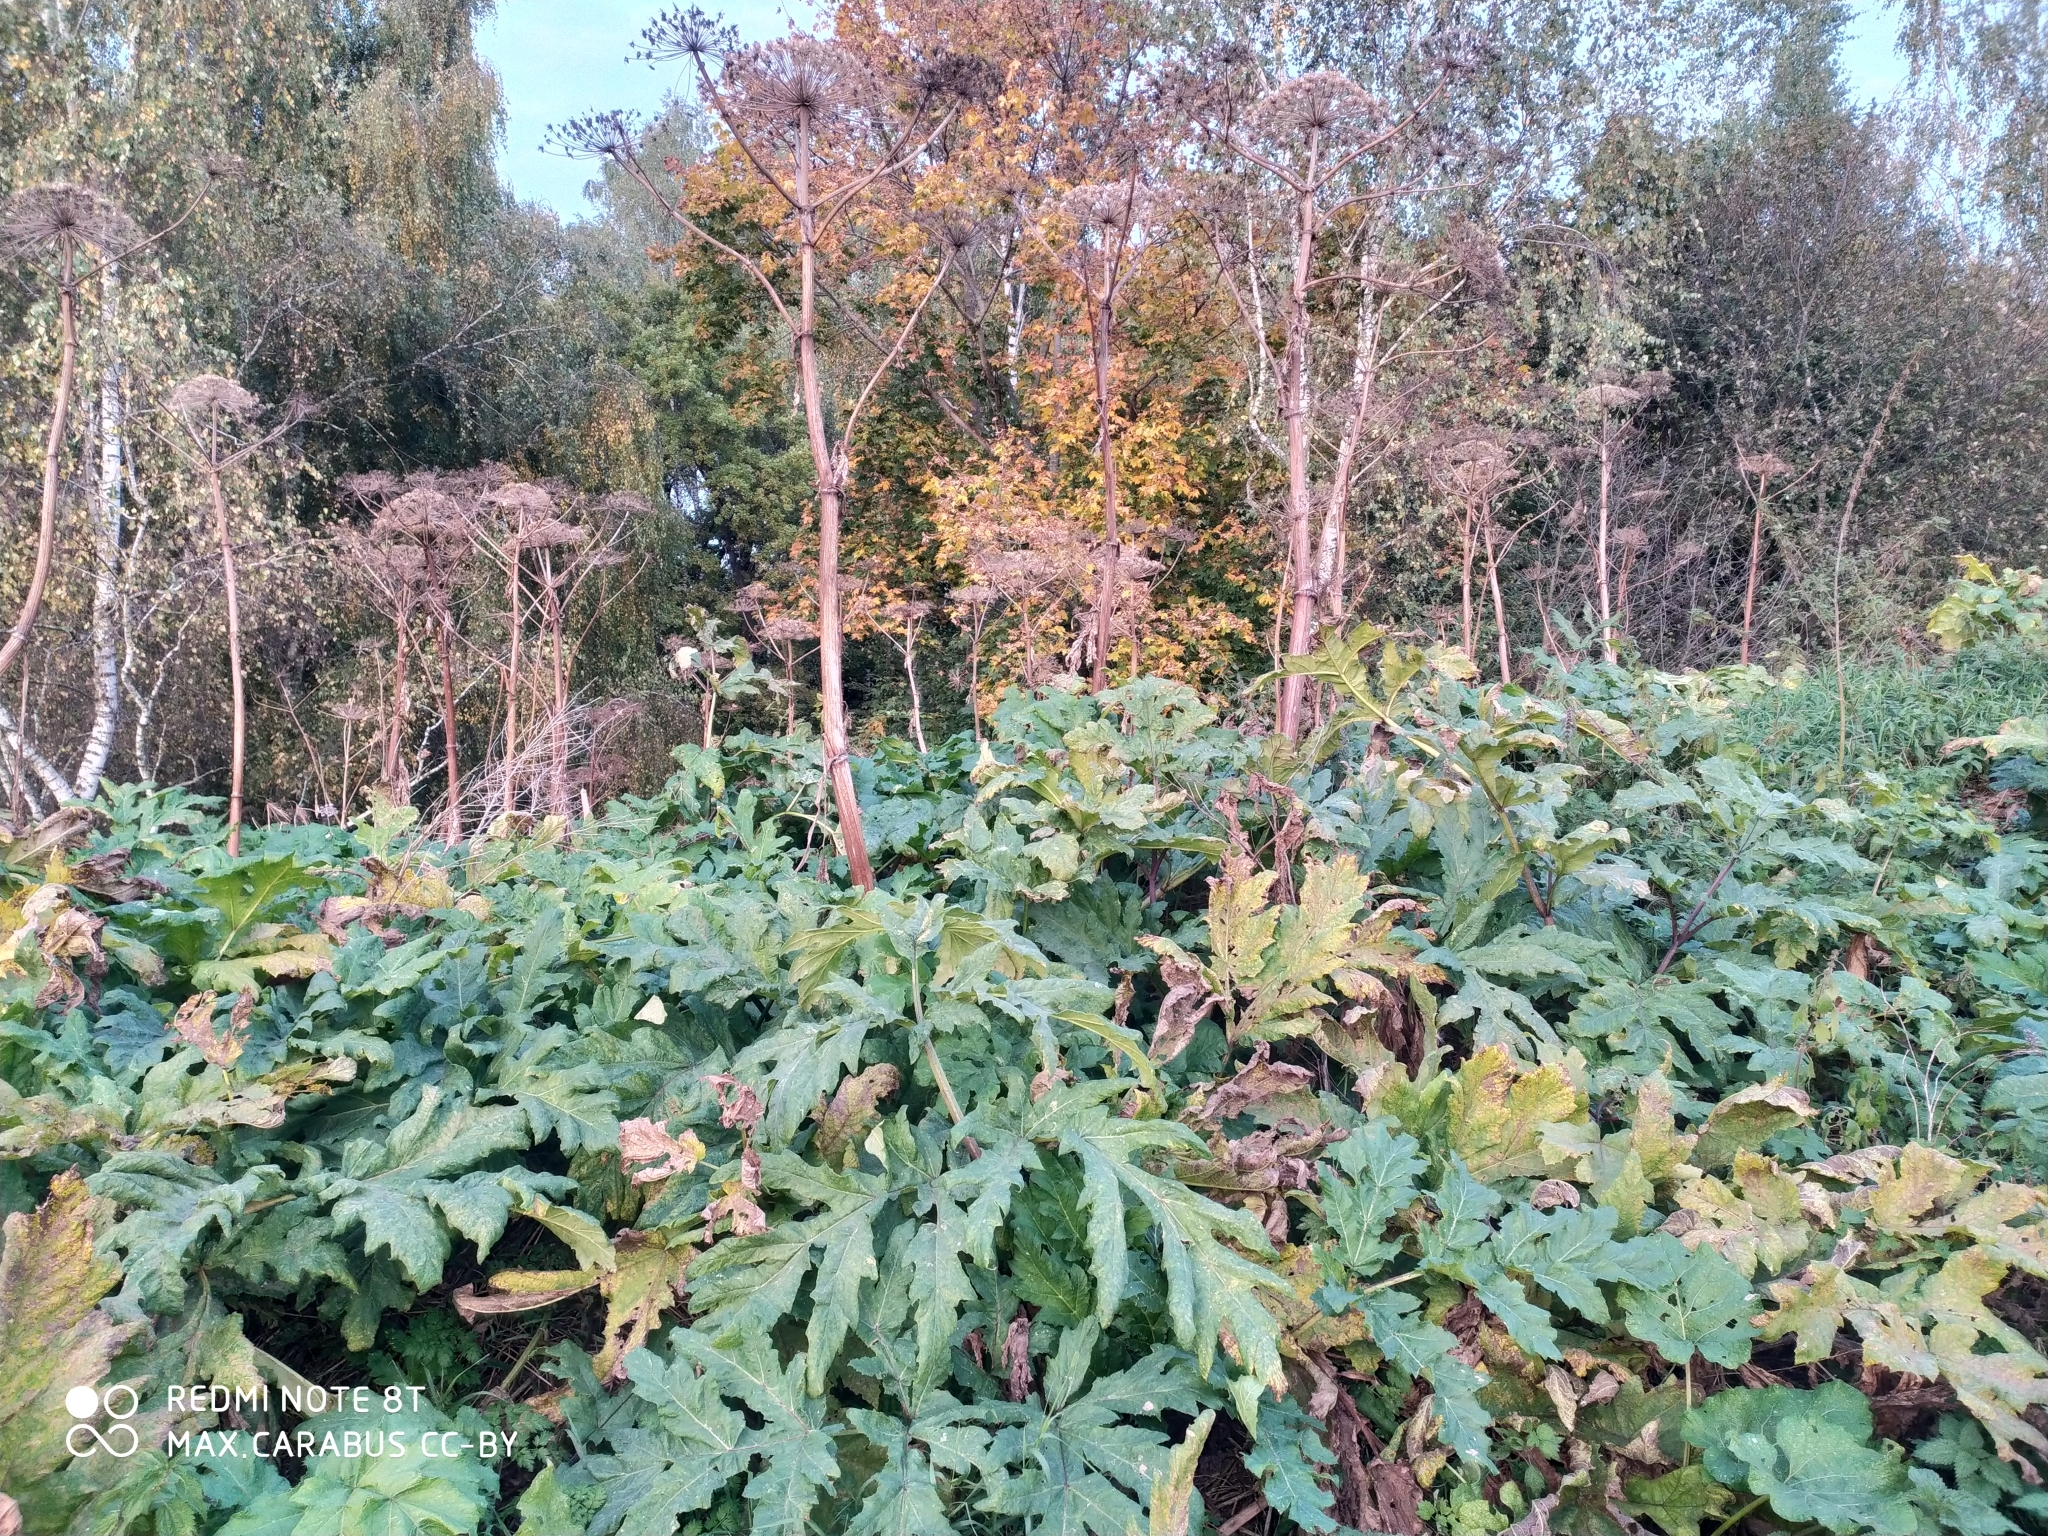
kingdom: Plantae
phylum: Tracheophyta
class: Magnoliopsida
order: Apiales
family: Apiaceae
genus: Heracleum
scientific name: Heracleum sosnowskyi
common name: Sosnowsky's hogweed
